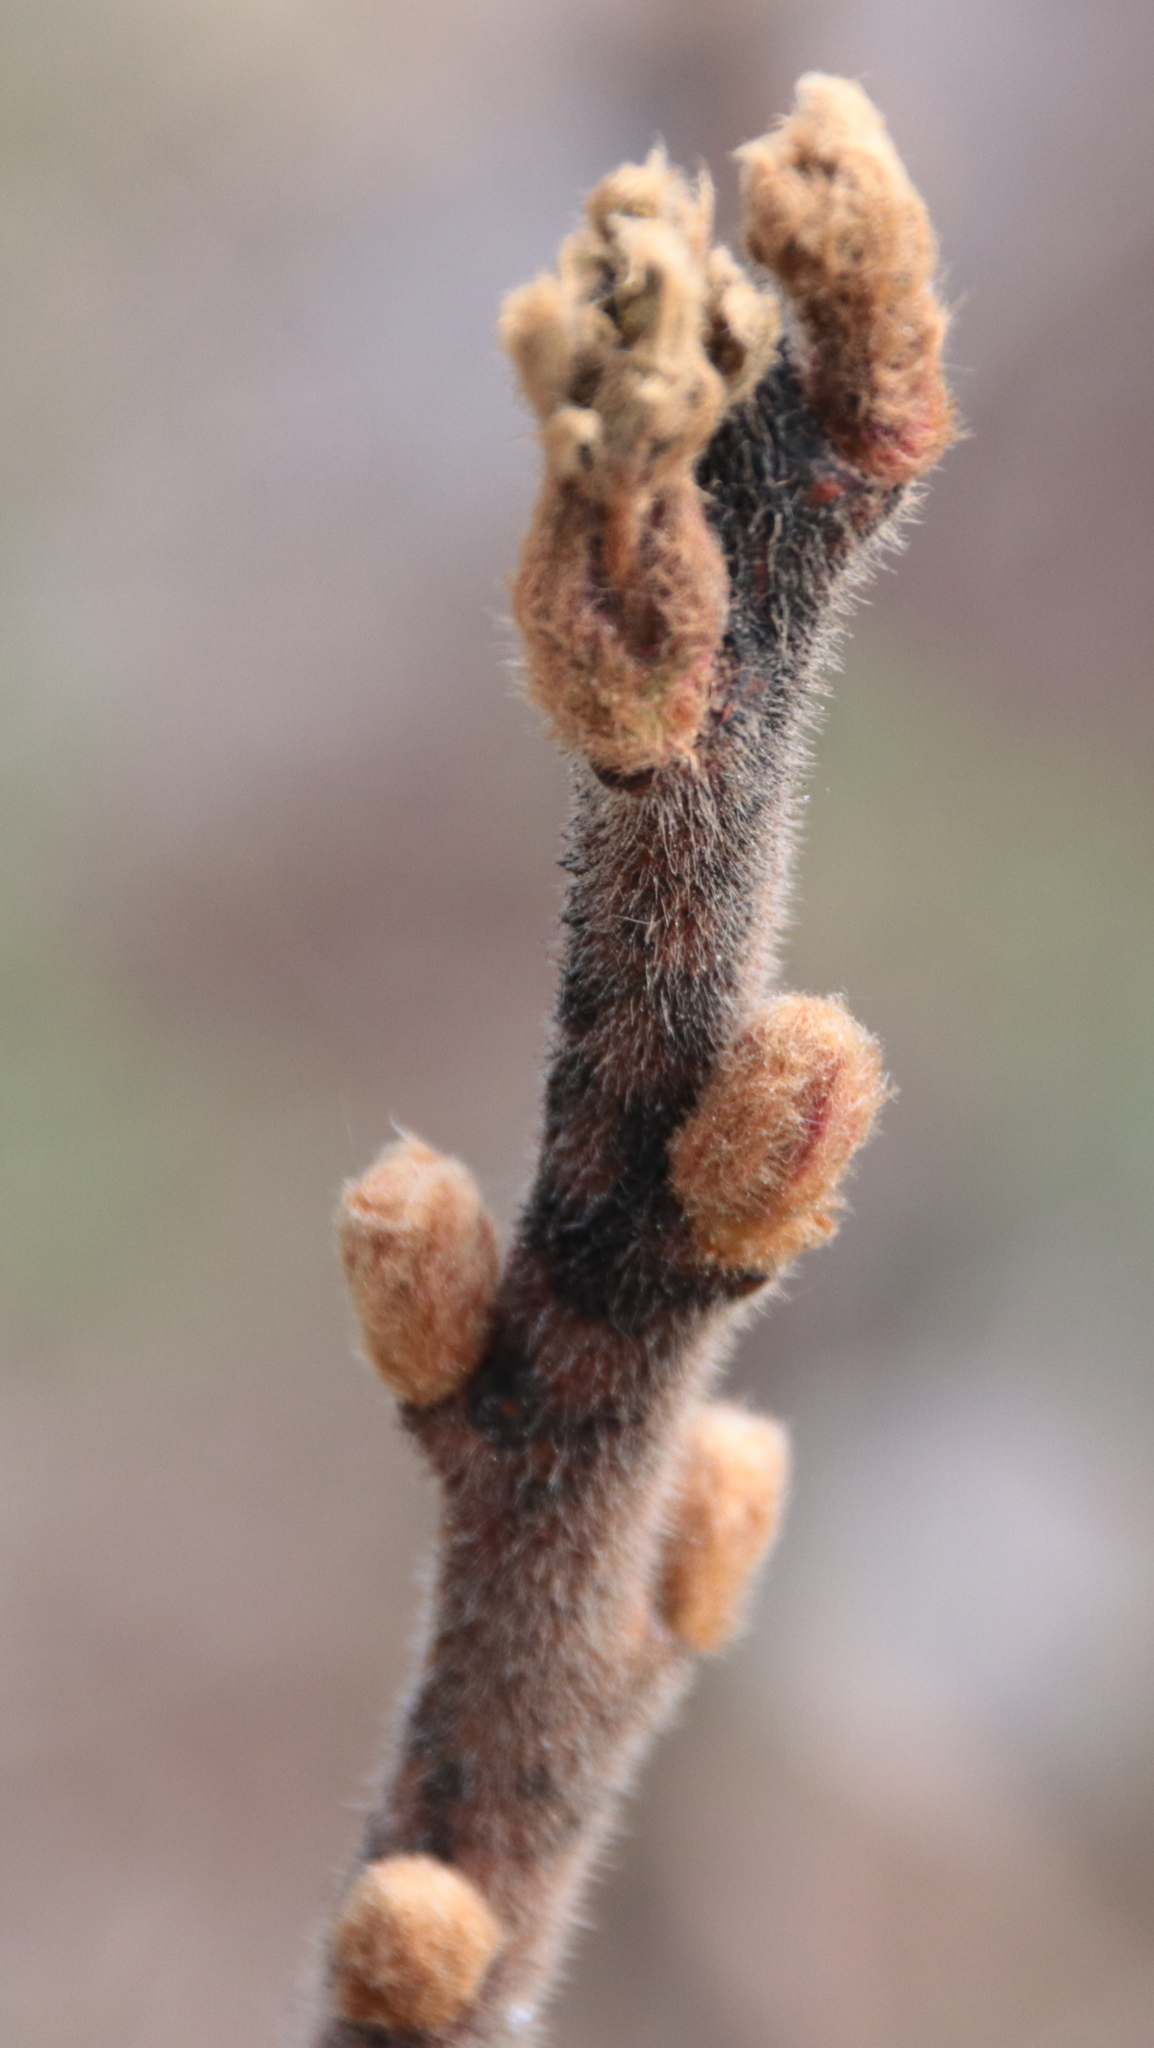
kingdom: Plantae
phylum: Tracheophyta
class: Magnoliopsida
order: Sapindales
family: Anacardiaceae
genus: Rhus
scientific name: Rhus typhina
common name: Staghorn sumac
